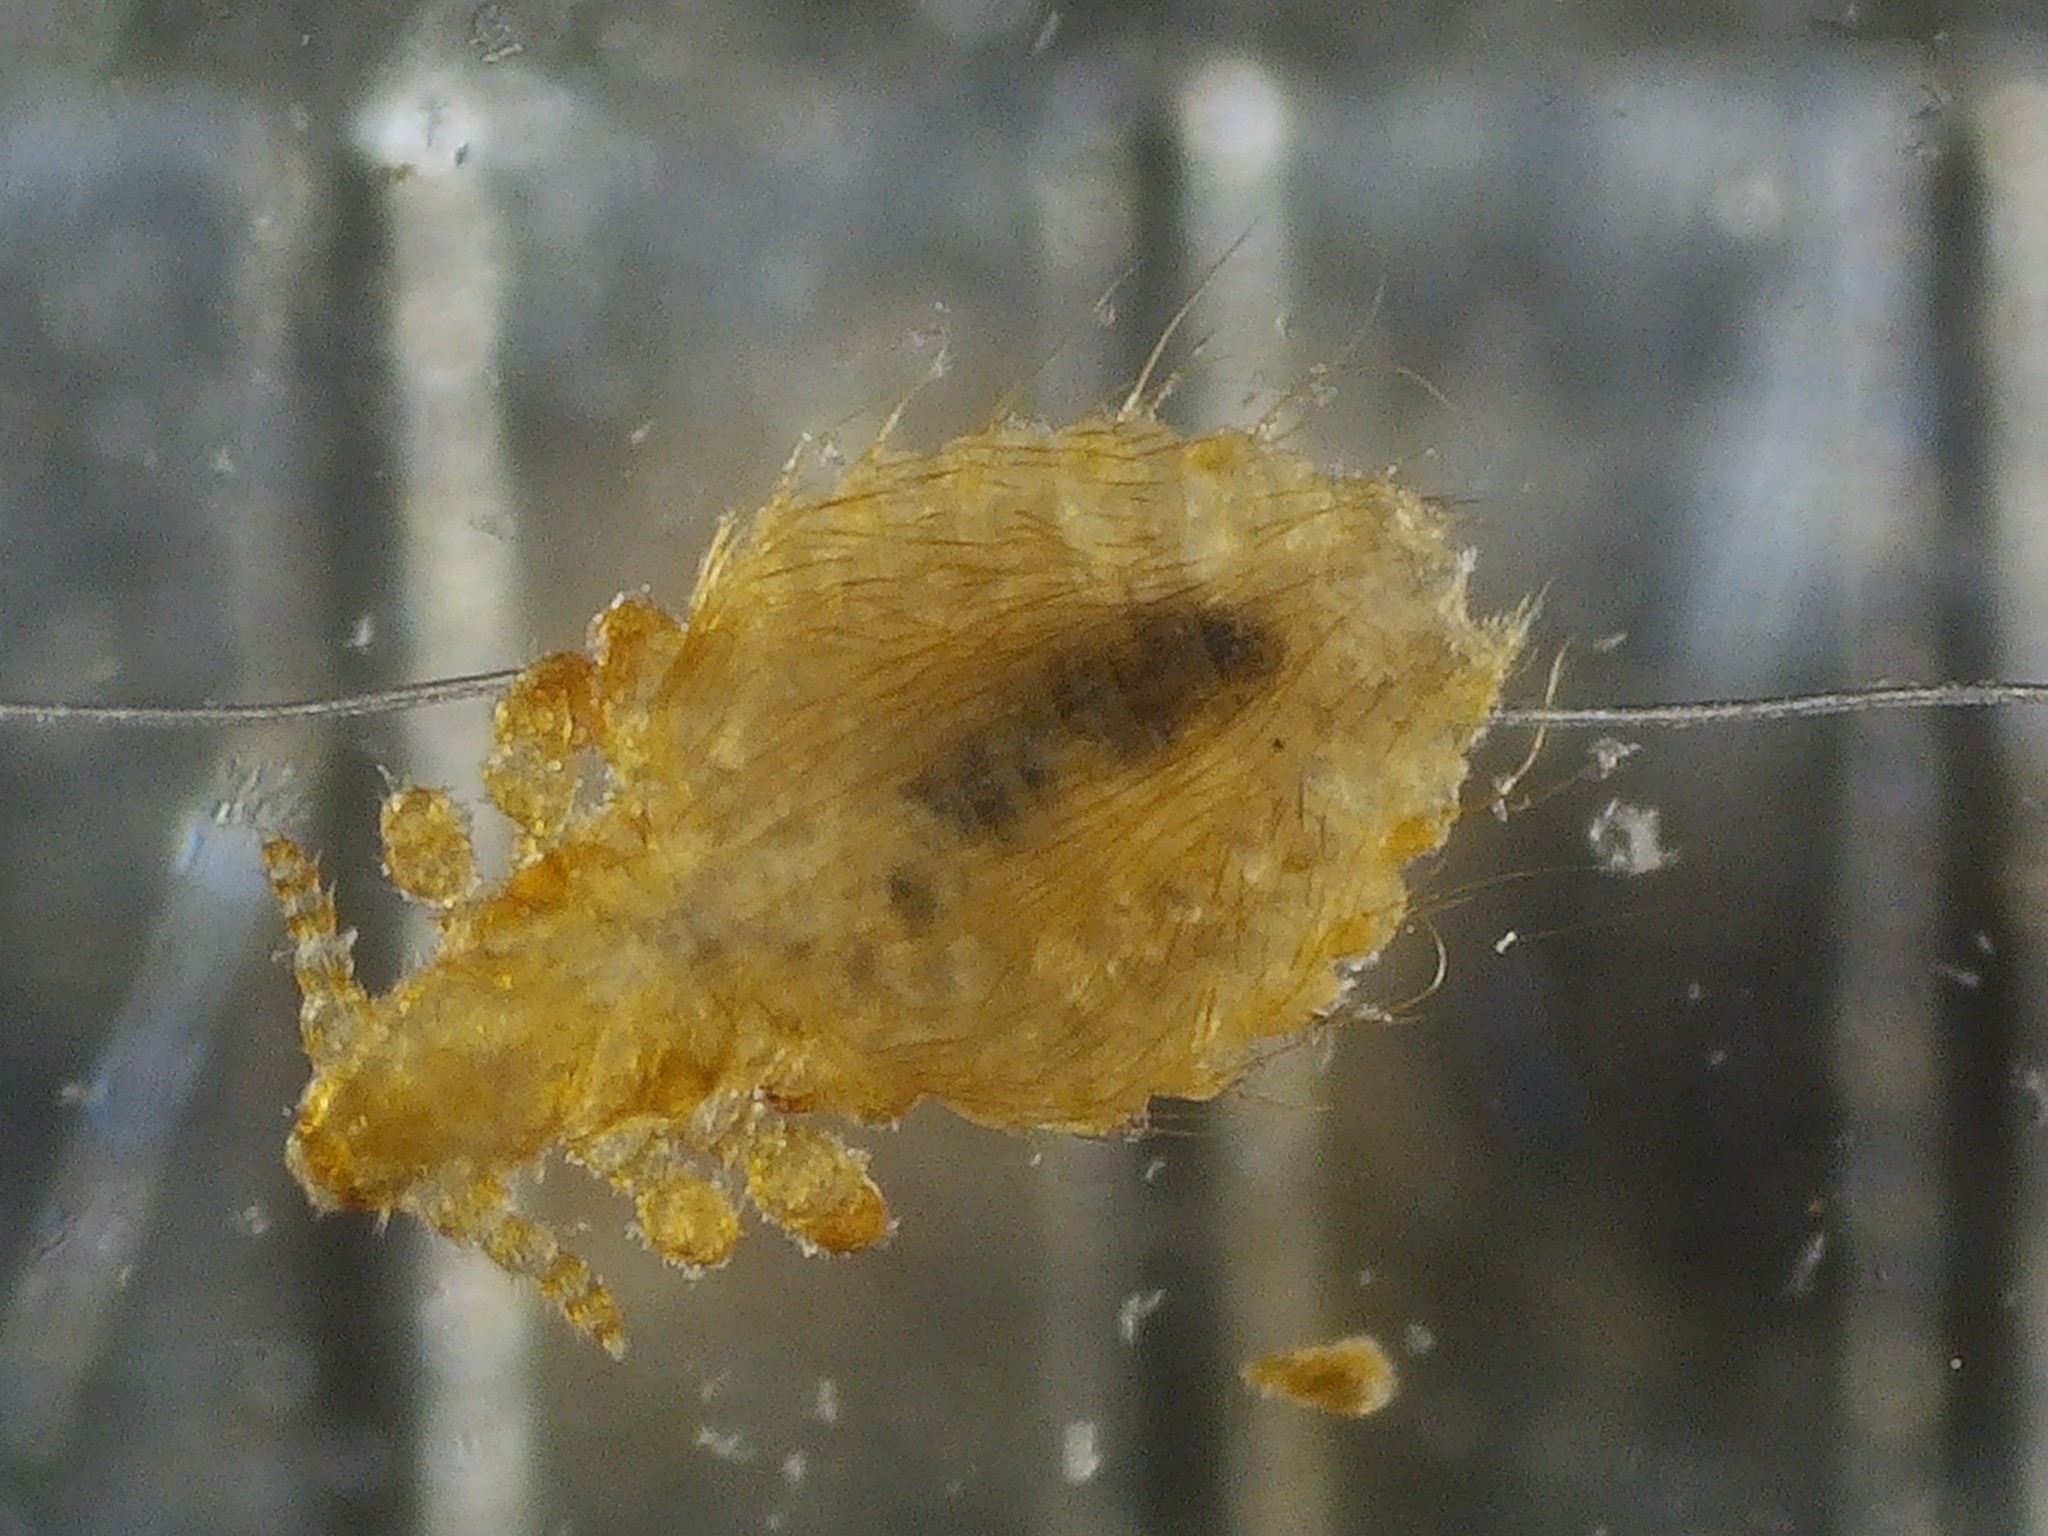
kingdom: Animalia
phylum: Arthropoda
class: Insecta
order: Psocodea
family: Linognathidae
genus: Linognathus
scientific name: Linognathus setosus
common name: Dog sucking louse
